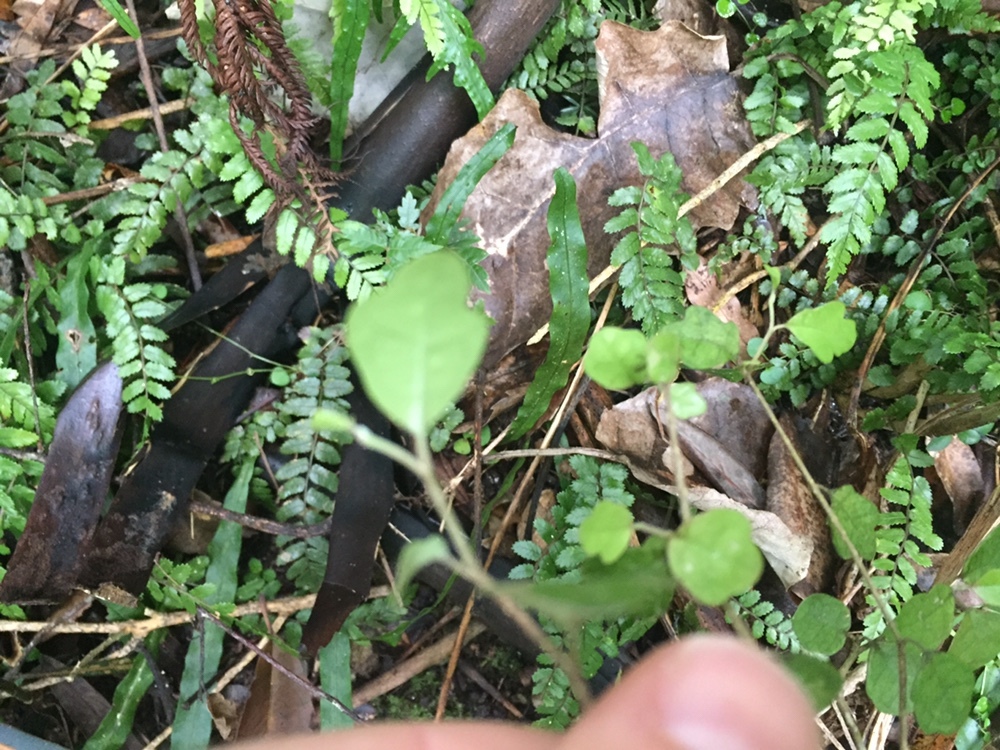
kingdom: Plantae
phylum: Tracheophyta
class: Magnoliopsida
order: Apiales
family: Pennantiaceae
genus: Pennantia
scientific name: Pennantia corymbosa
